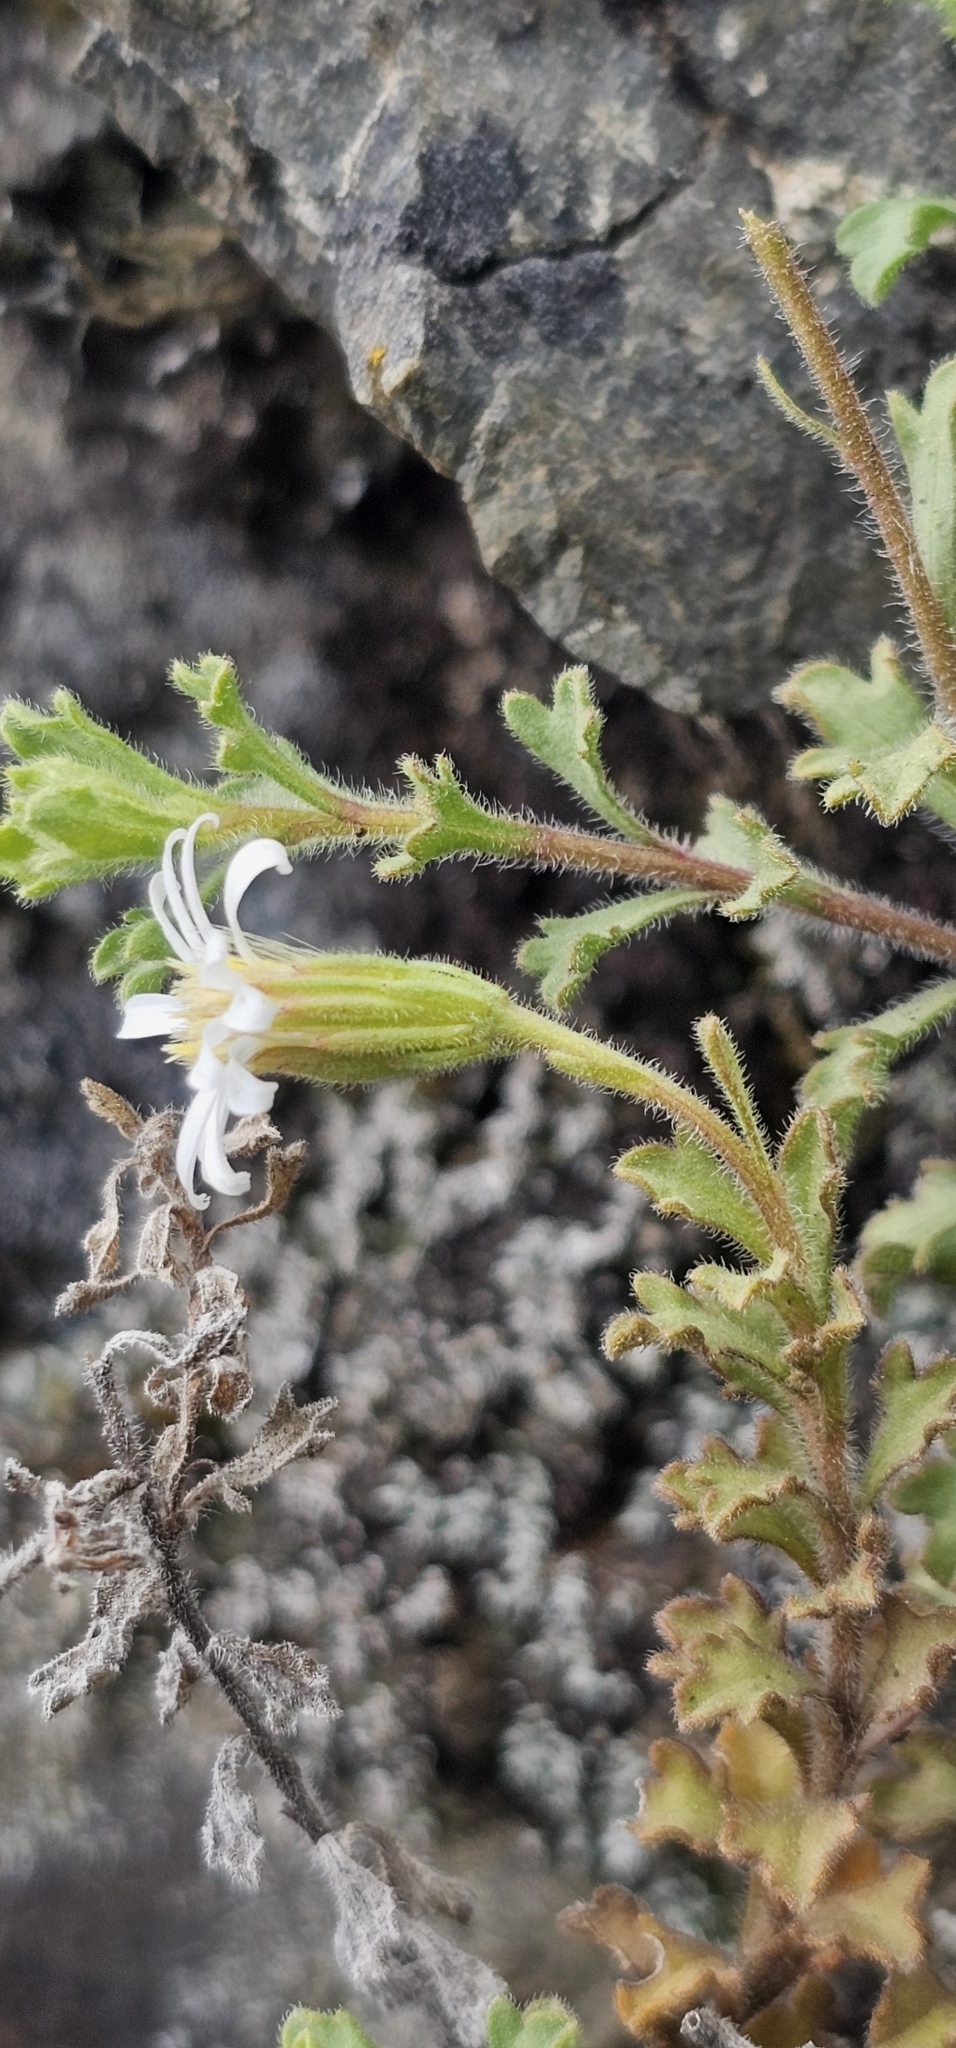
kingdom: Plantae
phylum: Tracheophyta
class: Magnoliopsida
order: Asterales
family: Asteraceae
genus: Vittadinia
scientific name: Vittadinia australis
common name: White fuzzweed
